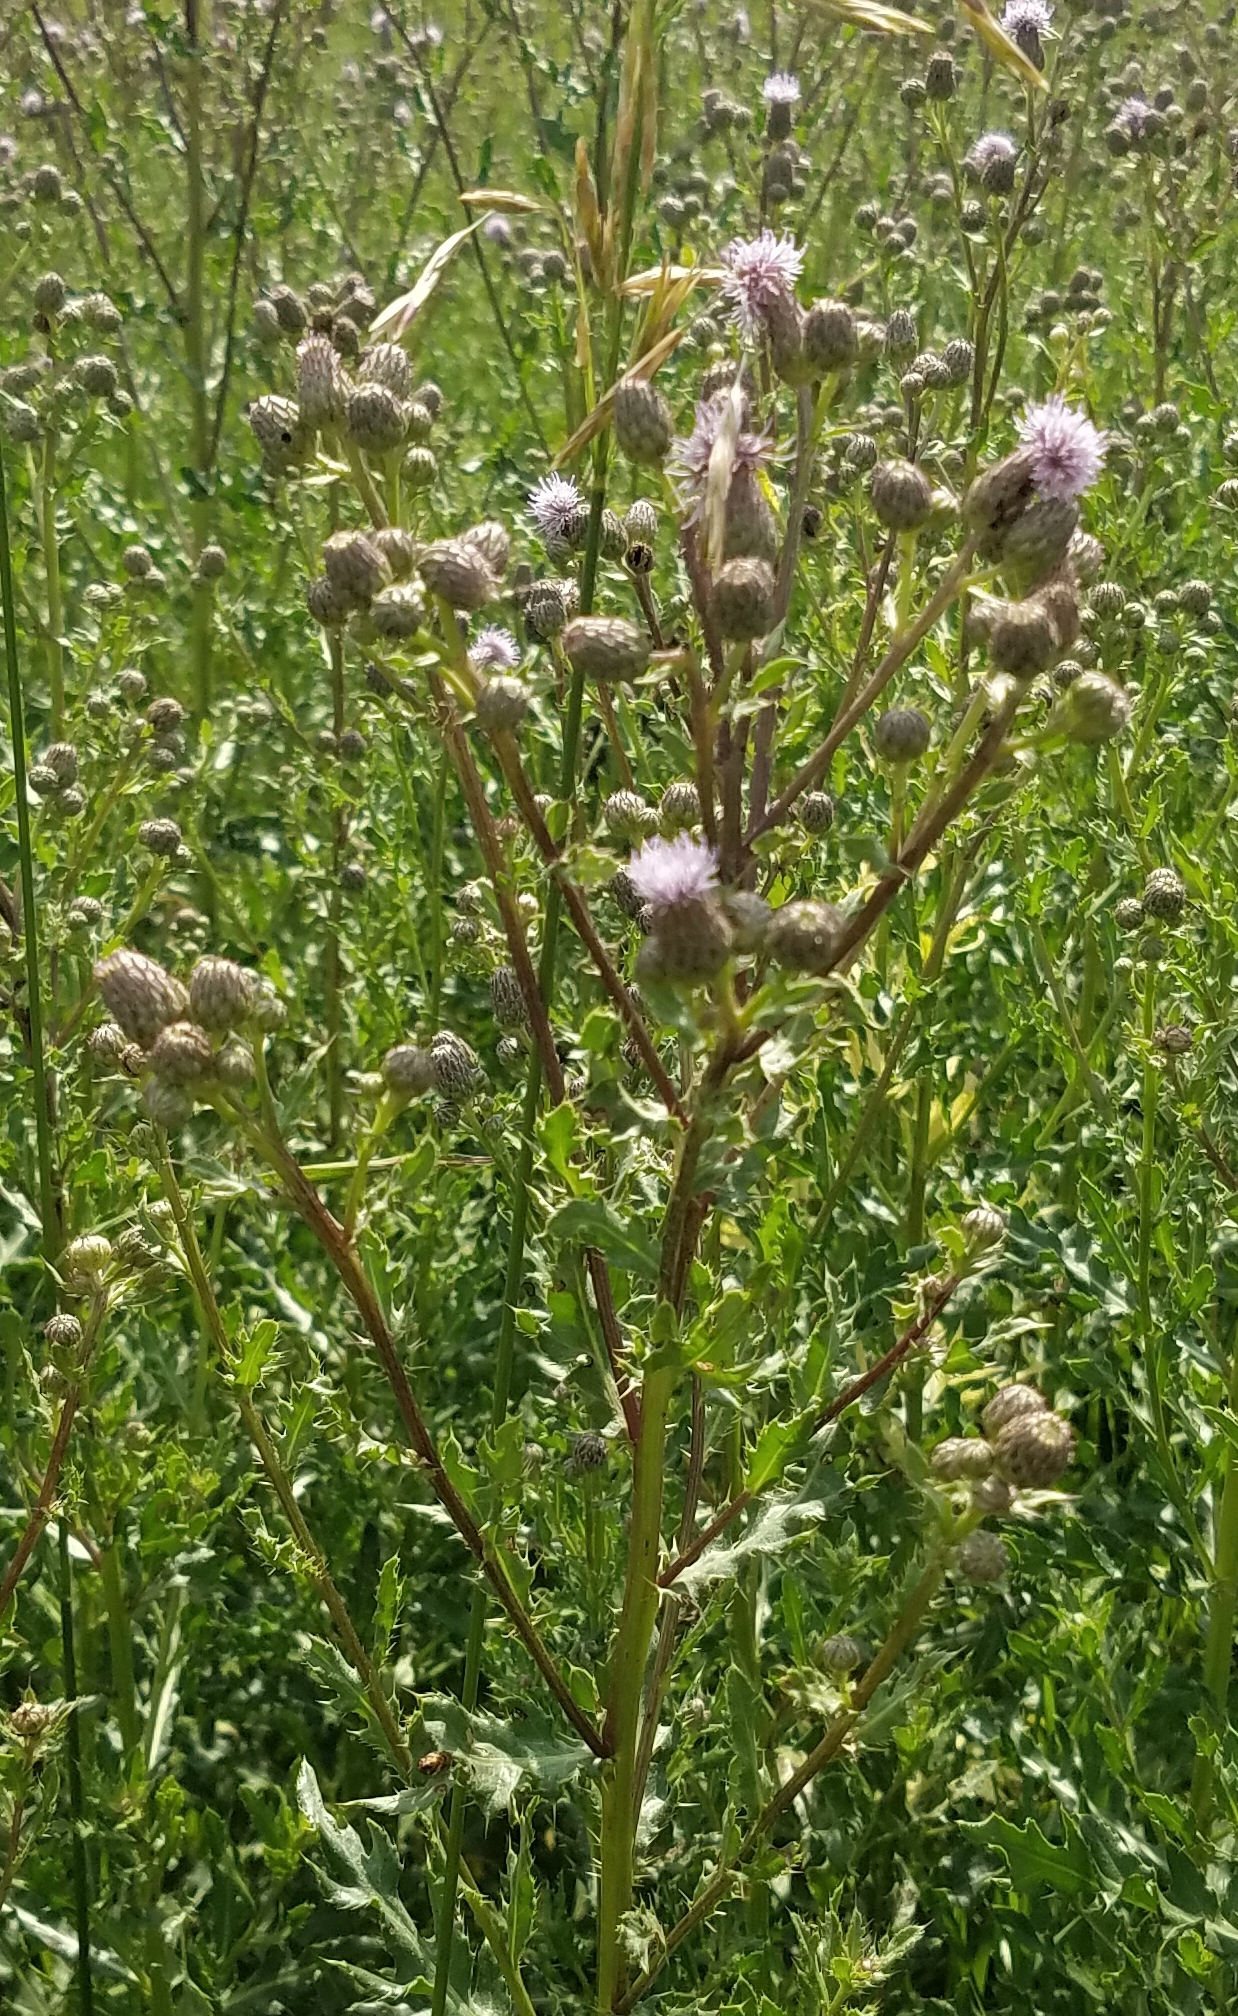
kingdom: Plantae
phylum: Tracheophyta
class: Magnoliopsida
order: Asterales
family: Asteraceae
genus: Cirsium
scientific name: Cirsium arvense
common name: Creeping thistle
